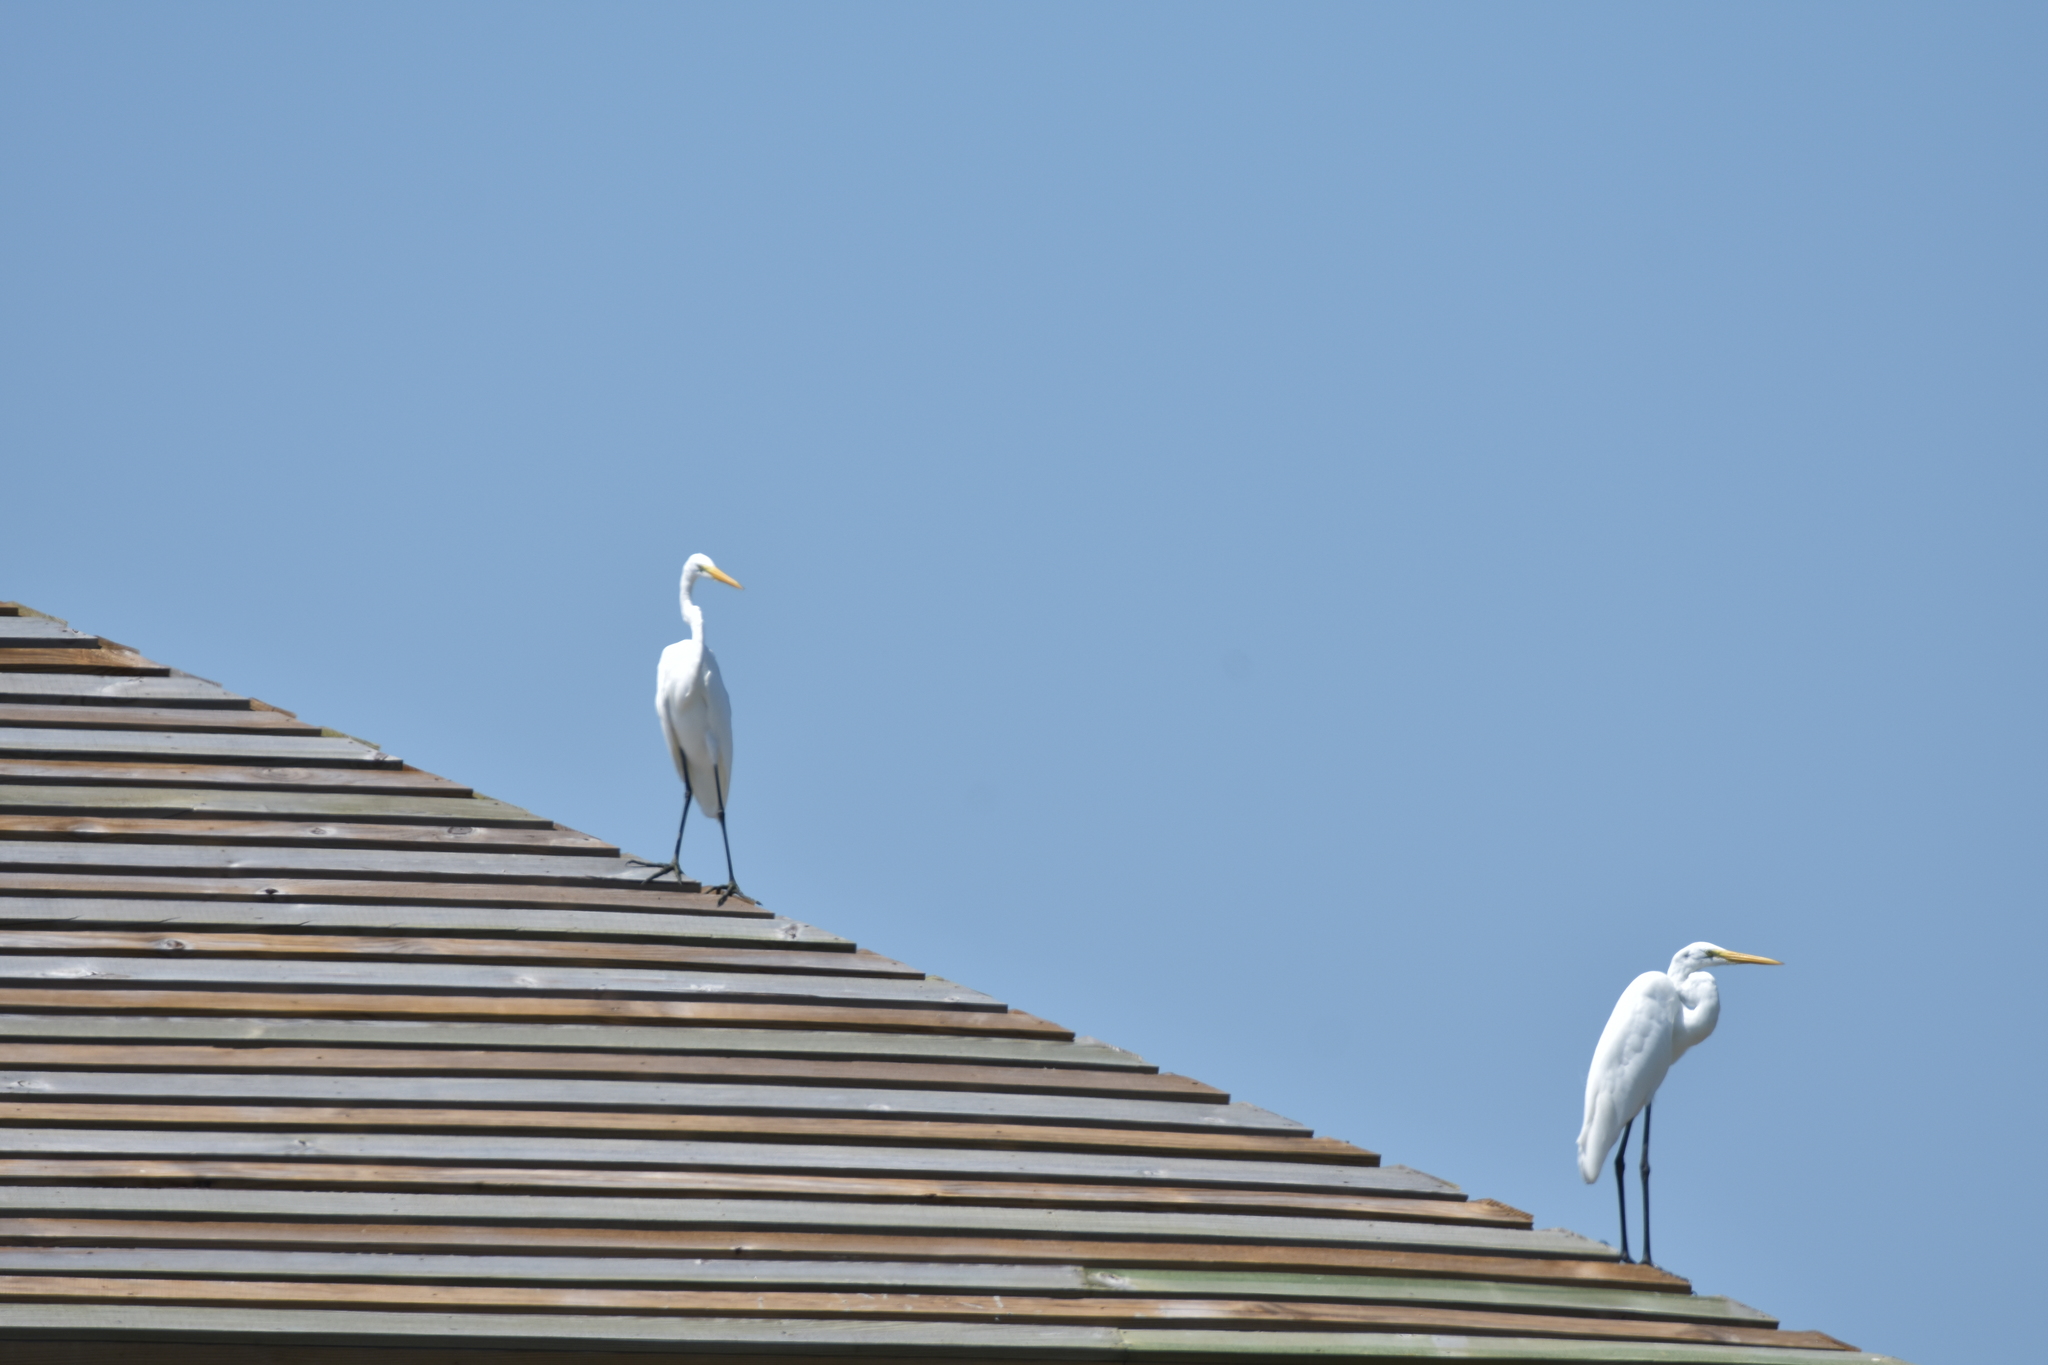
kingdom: Animalia
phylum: Chordata
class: Aves
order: Pelecaniformes
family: Ardeidae
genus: Ardea
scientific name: Ardea alba
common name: Great egret
